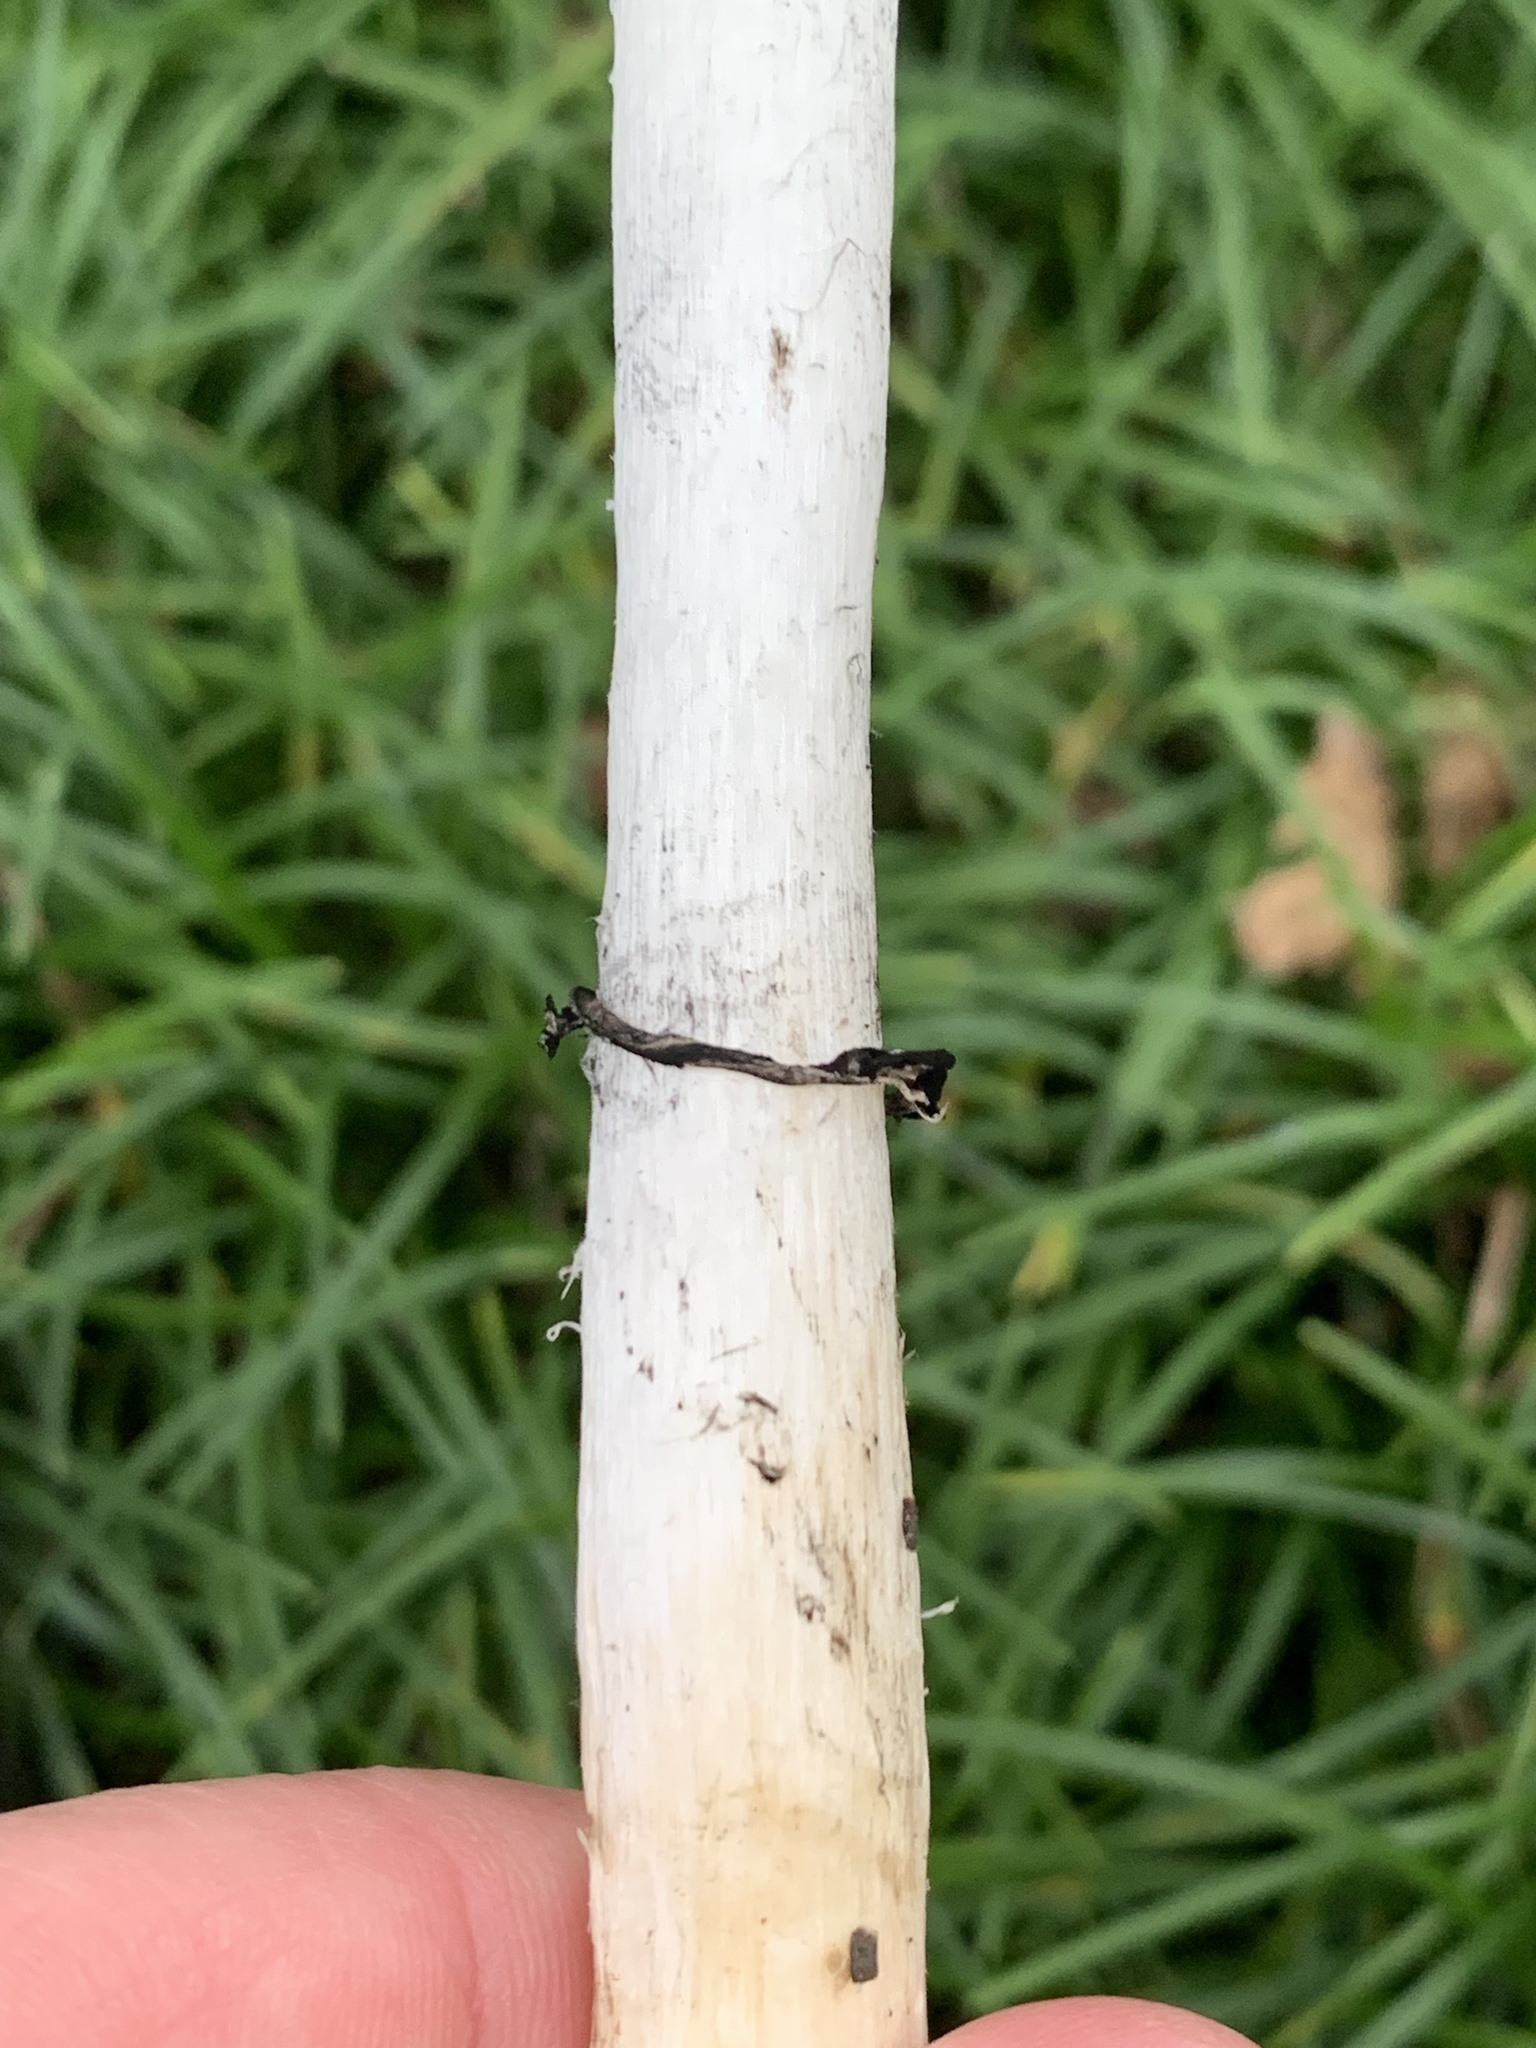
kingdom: Fungi
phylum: Basidiomycota
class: Agaricomycetes
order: Agaricales
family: Agaricaceae
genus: Coprinus
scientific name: Coprinus comatus
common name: Lawyer's wig
